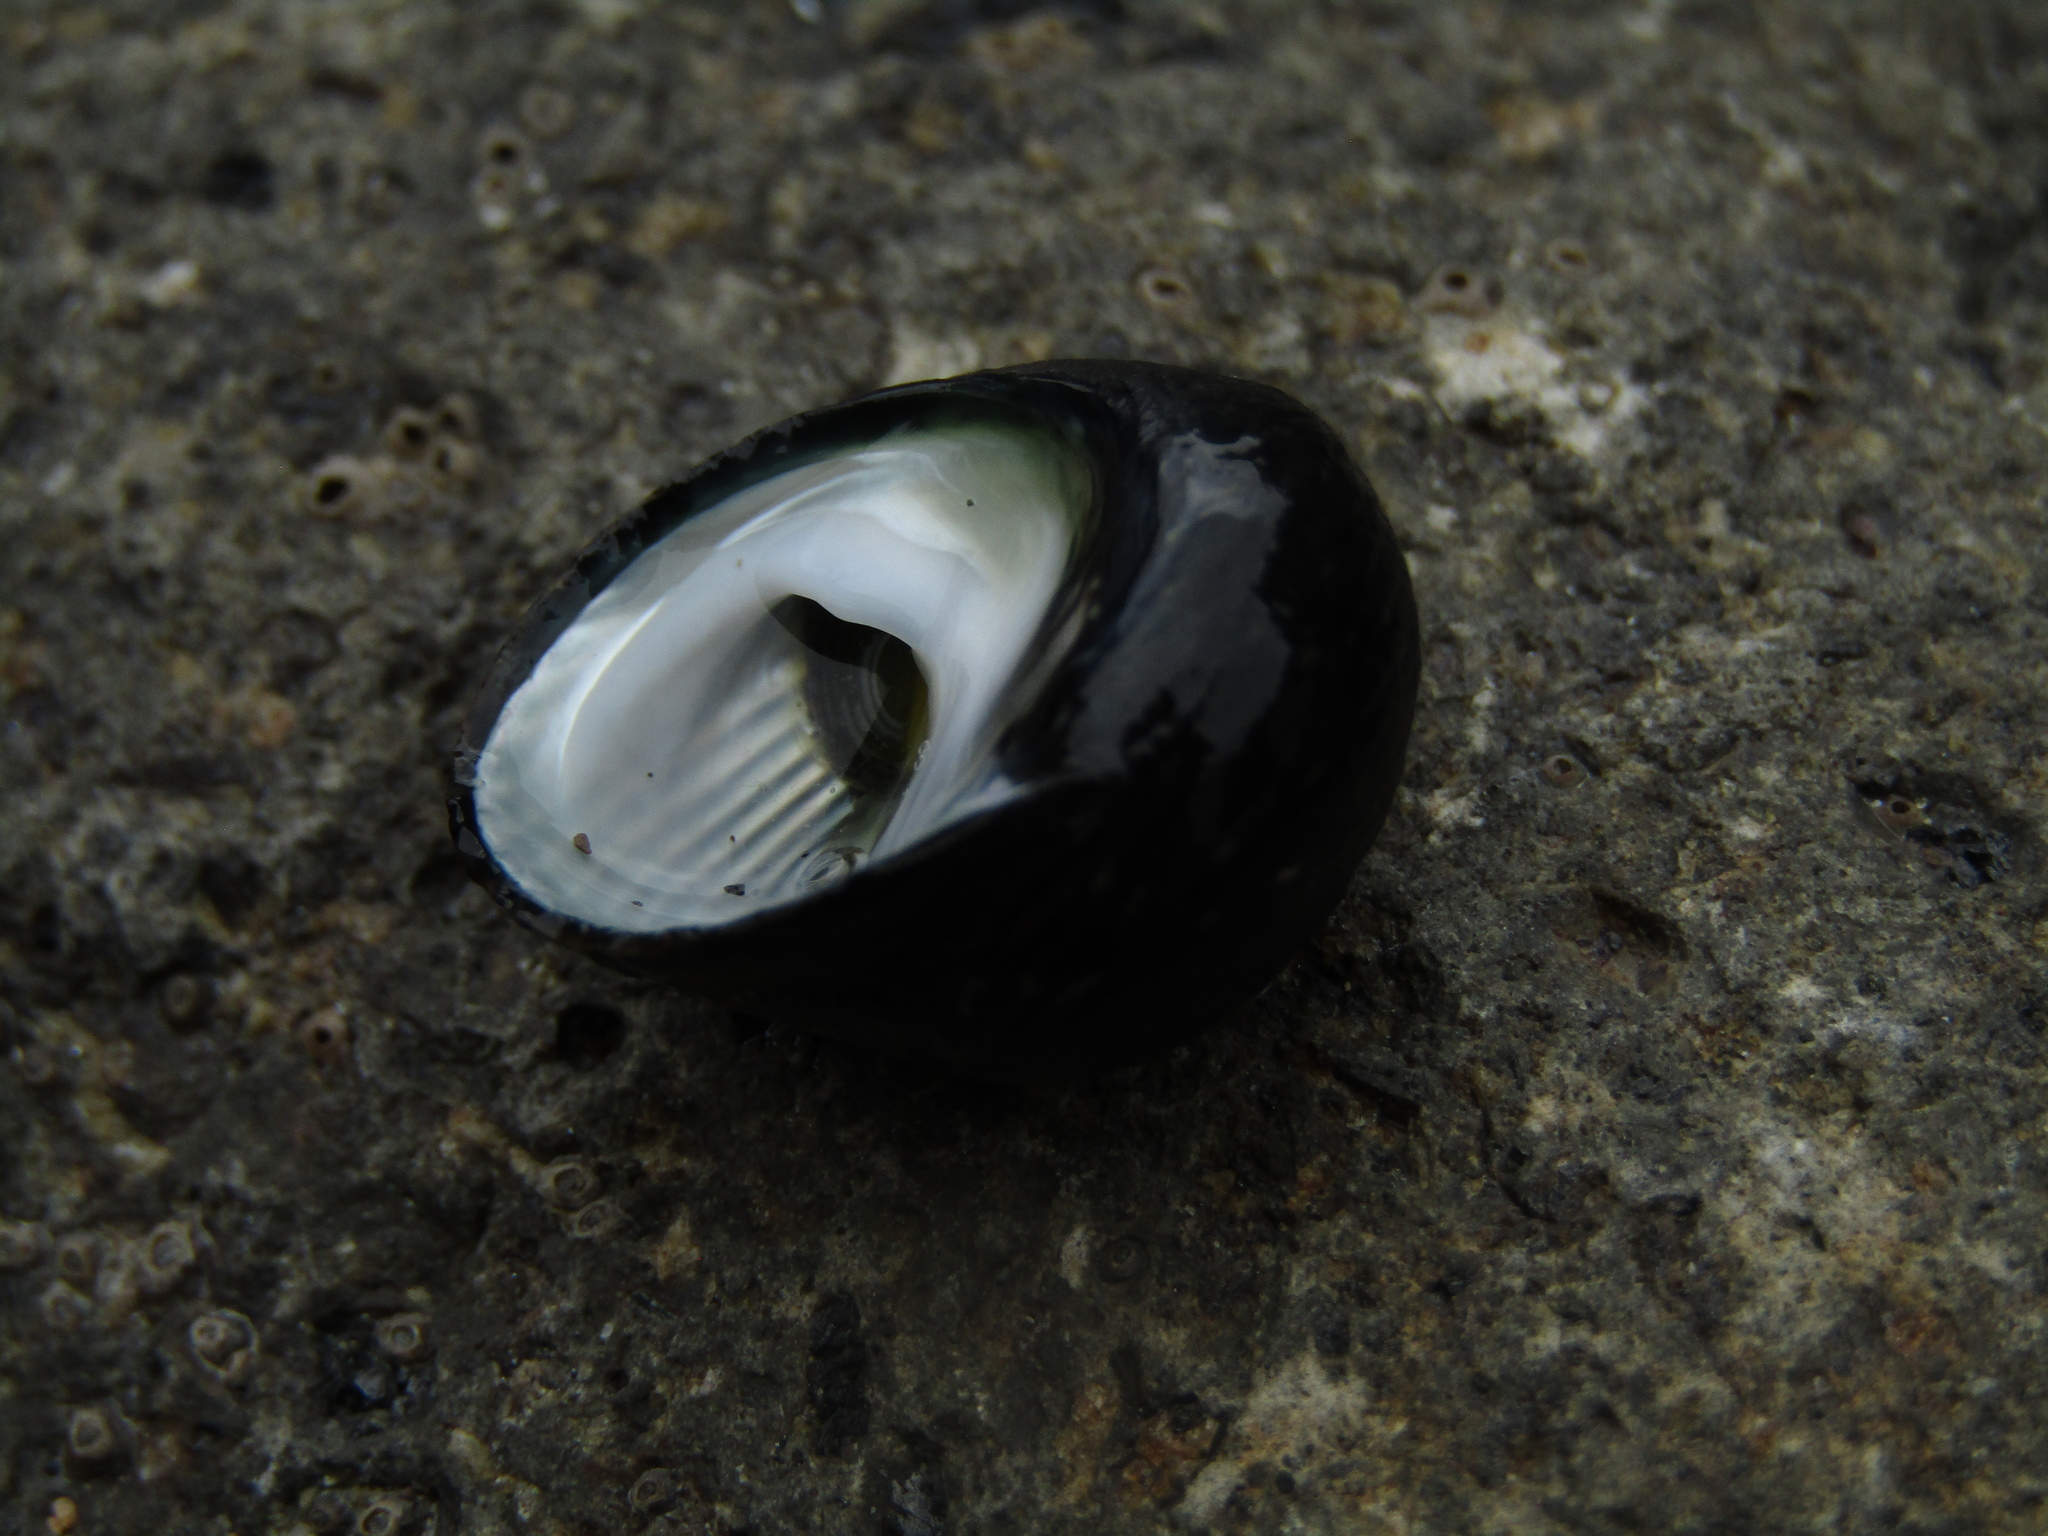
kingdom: Animalia
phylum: Mollusca
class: Gastropoda
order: Trochida
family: Trochidae
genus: Diloma
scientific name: Diloma zelandicum
